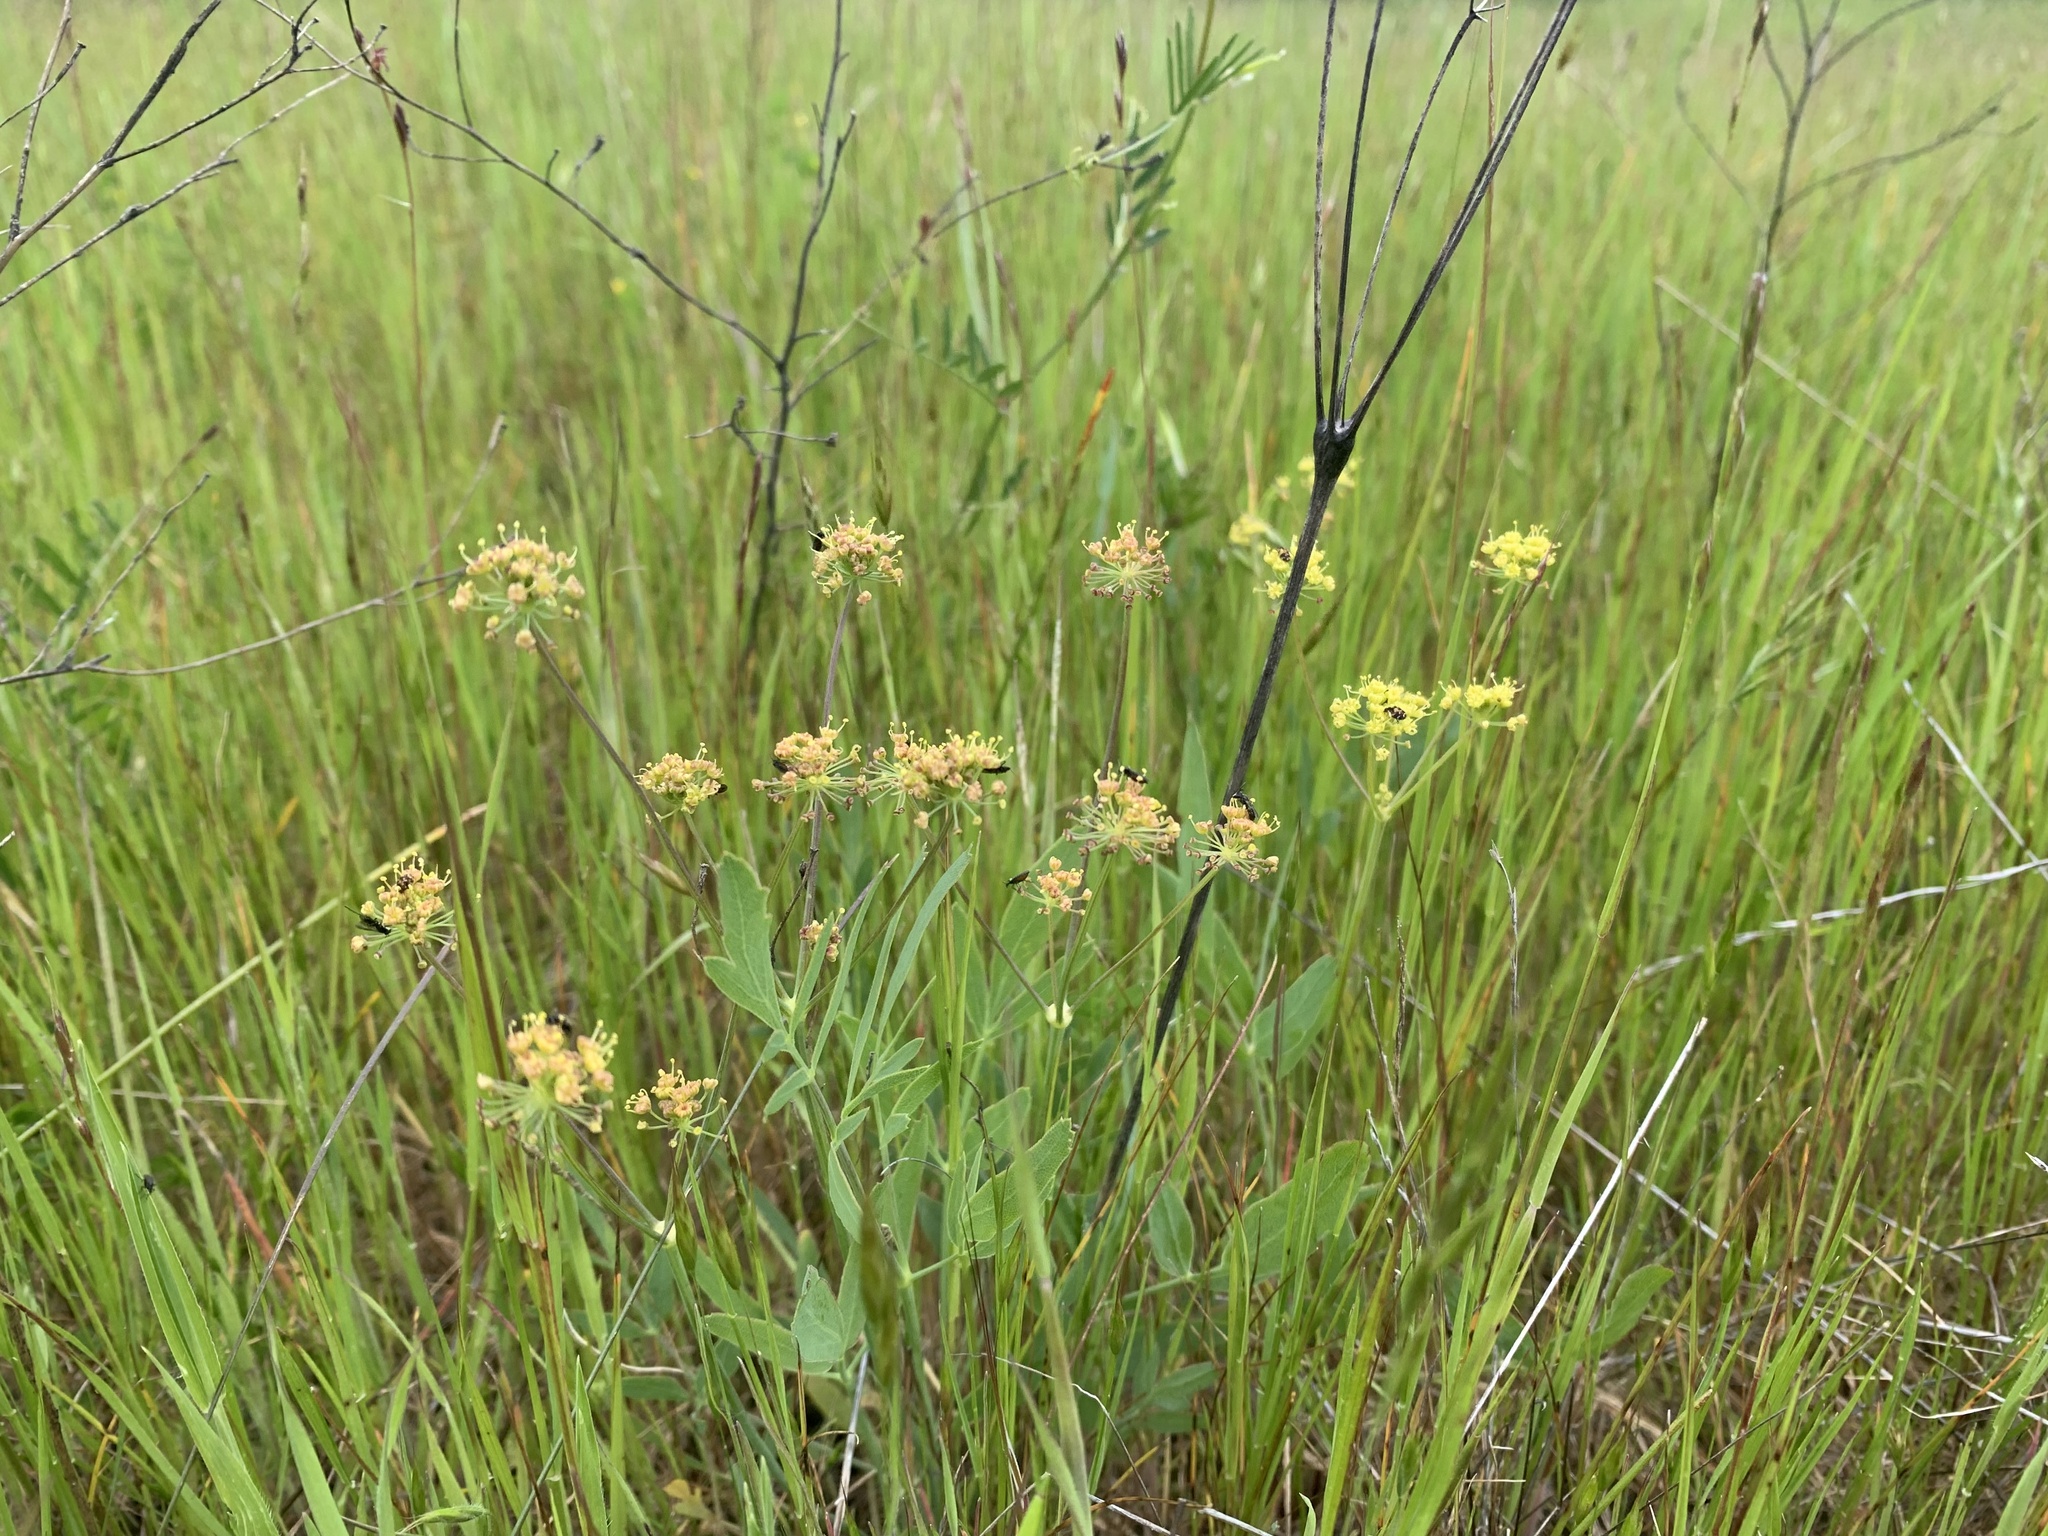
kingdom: Plantae
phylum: Tracheophyta
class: Magnoliopsida
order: Apiales
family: Apiaceae
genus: Lomatium
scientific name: Lomatium nudicaule
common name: Pestle lomatium
